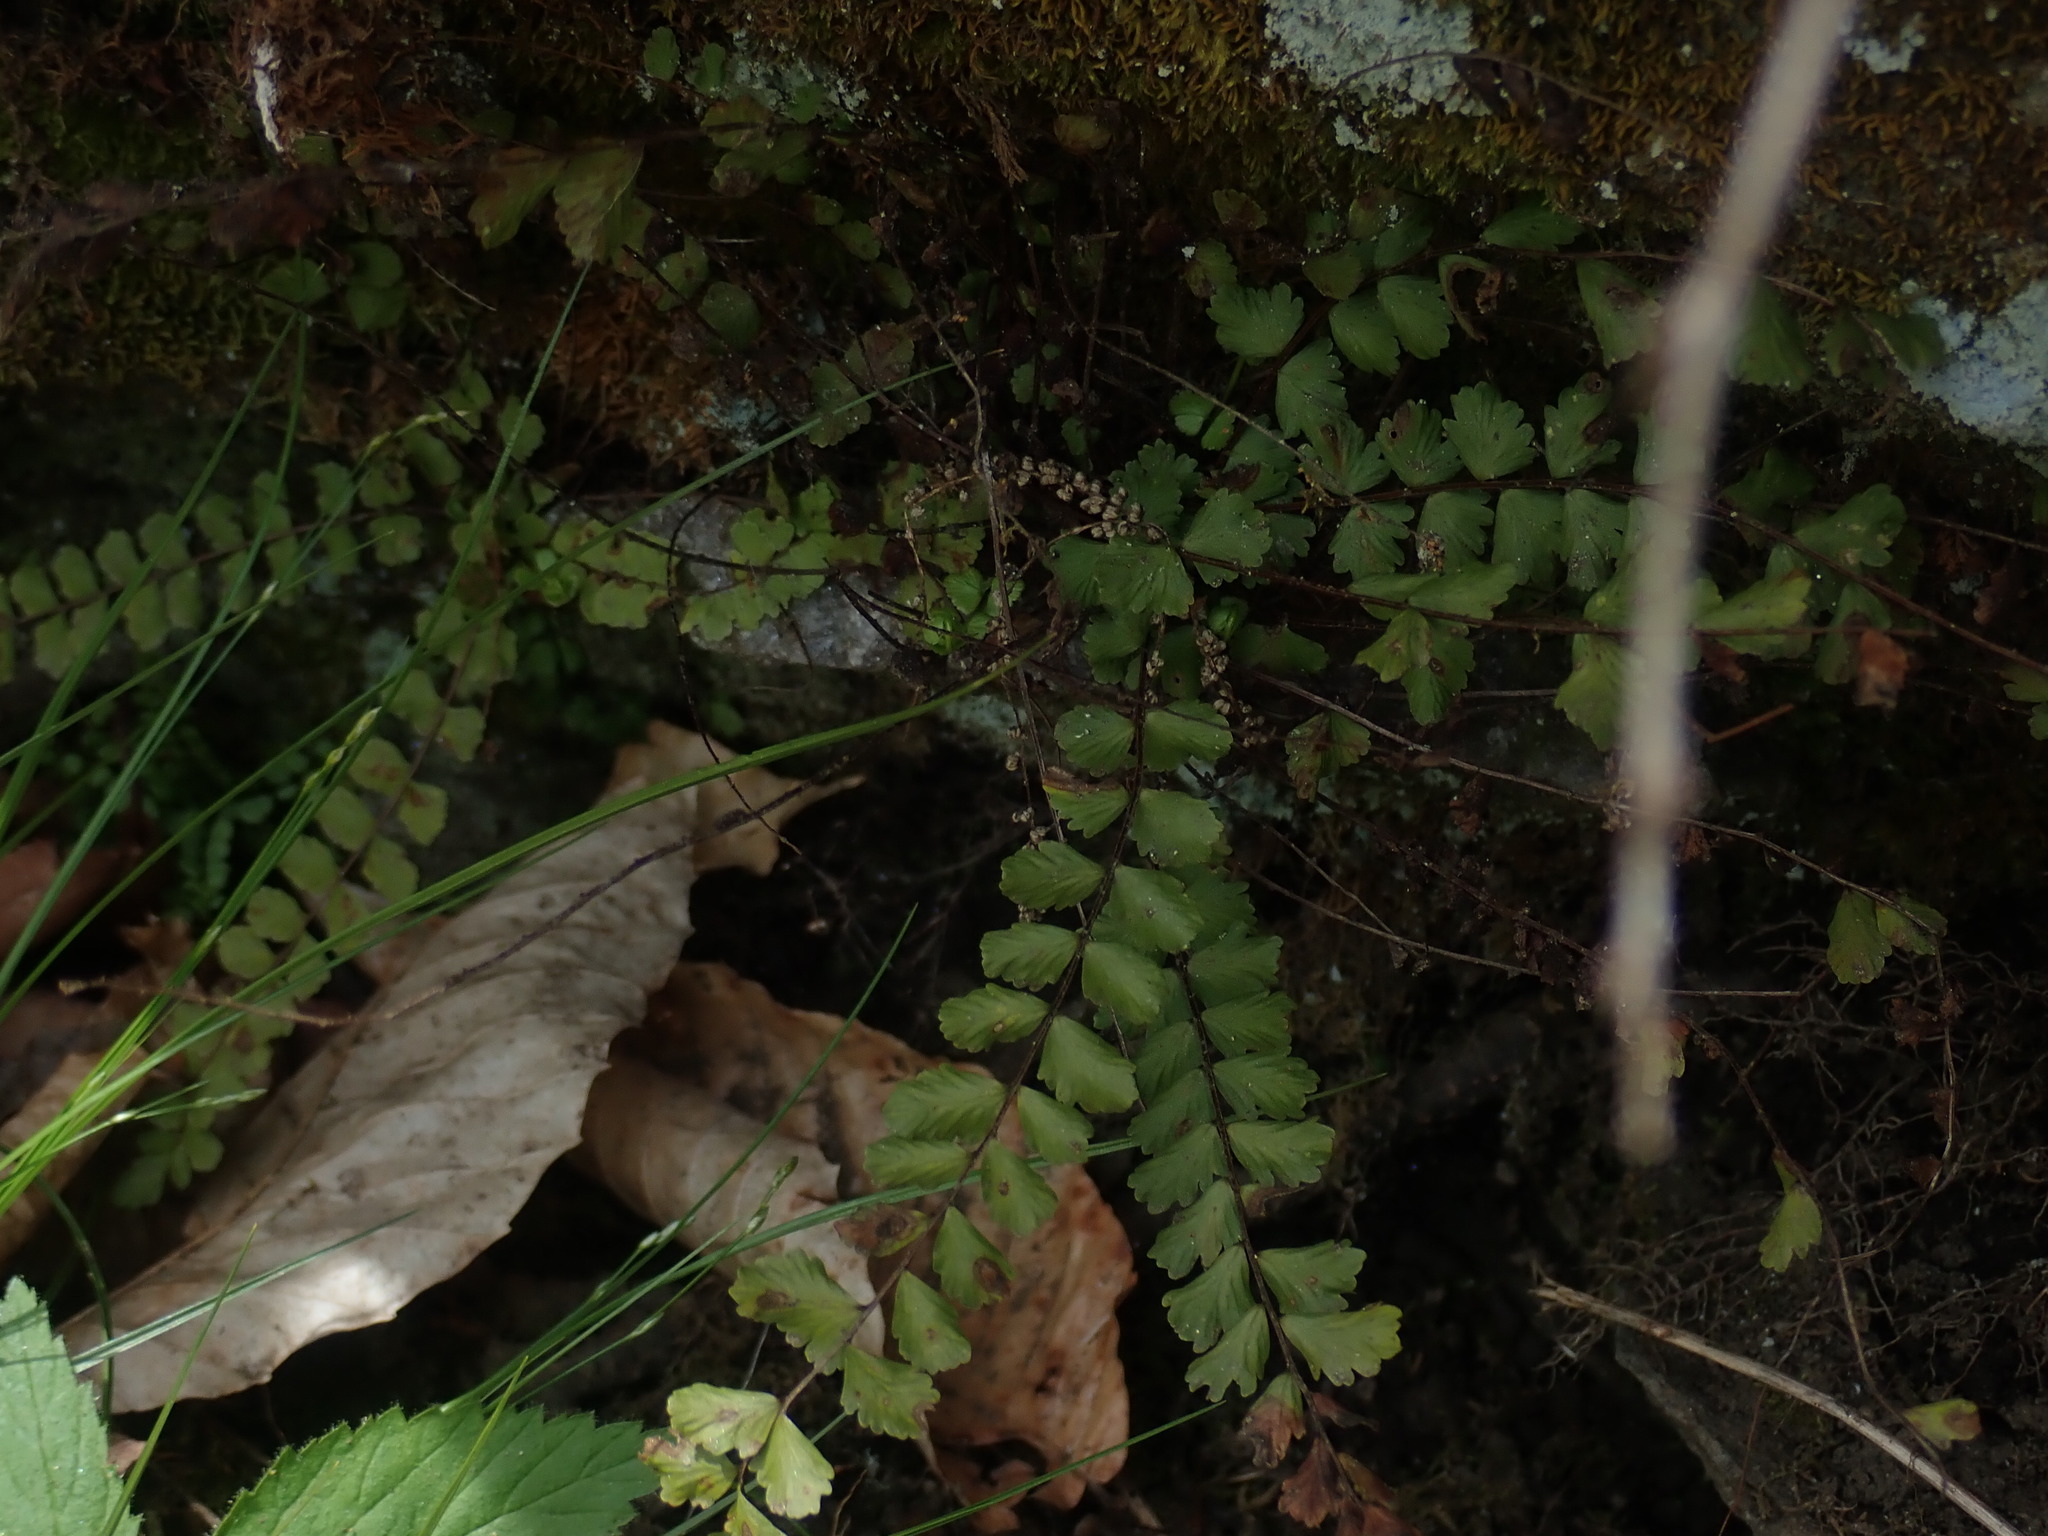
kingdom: Plantae
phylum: Tracheophyta
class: Polypodiopsida
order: Polypodiales
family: Aspleniaceae
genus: Asplenium
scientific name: Asplenium trichomanes
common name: Maidenhair spleenwort
